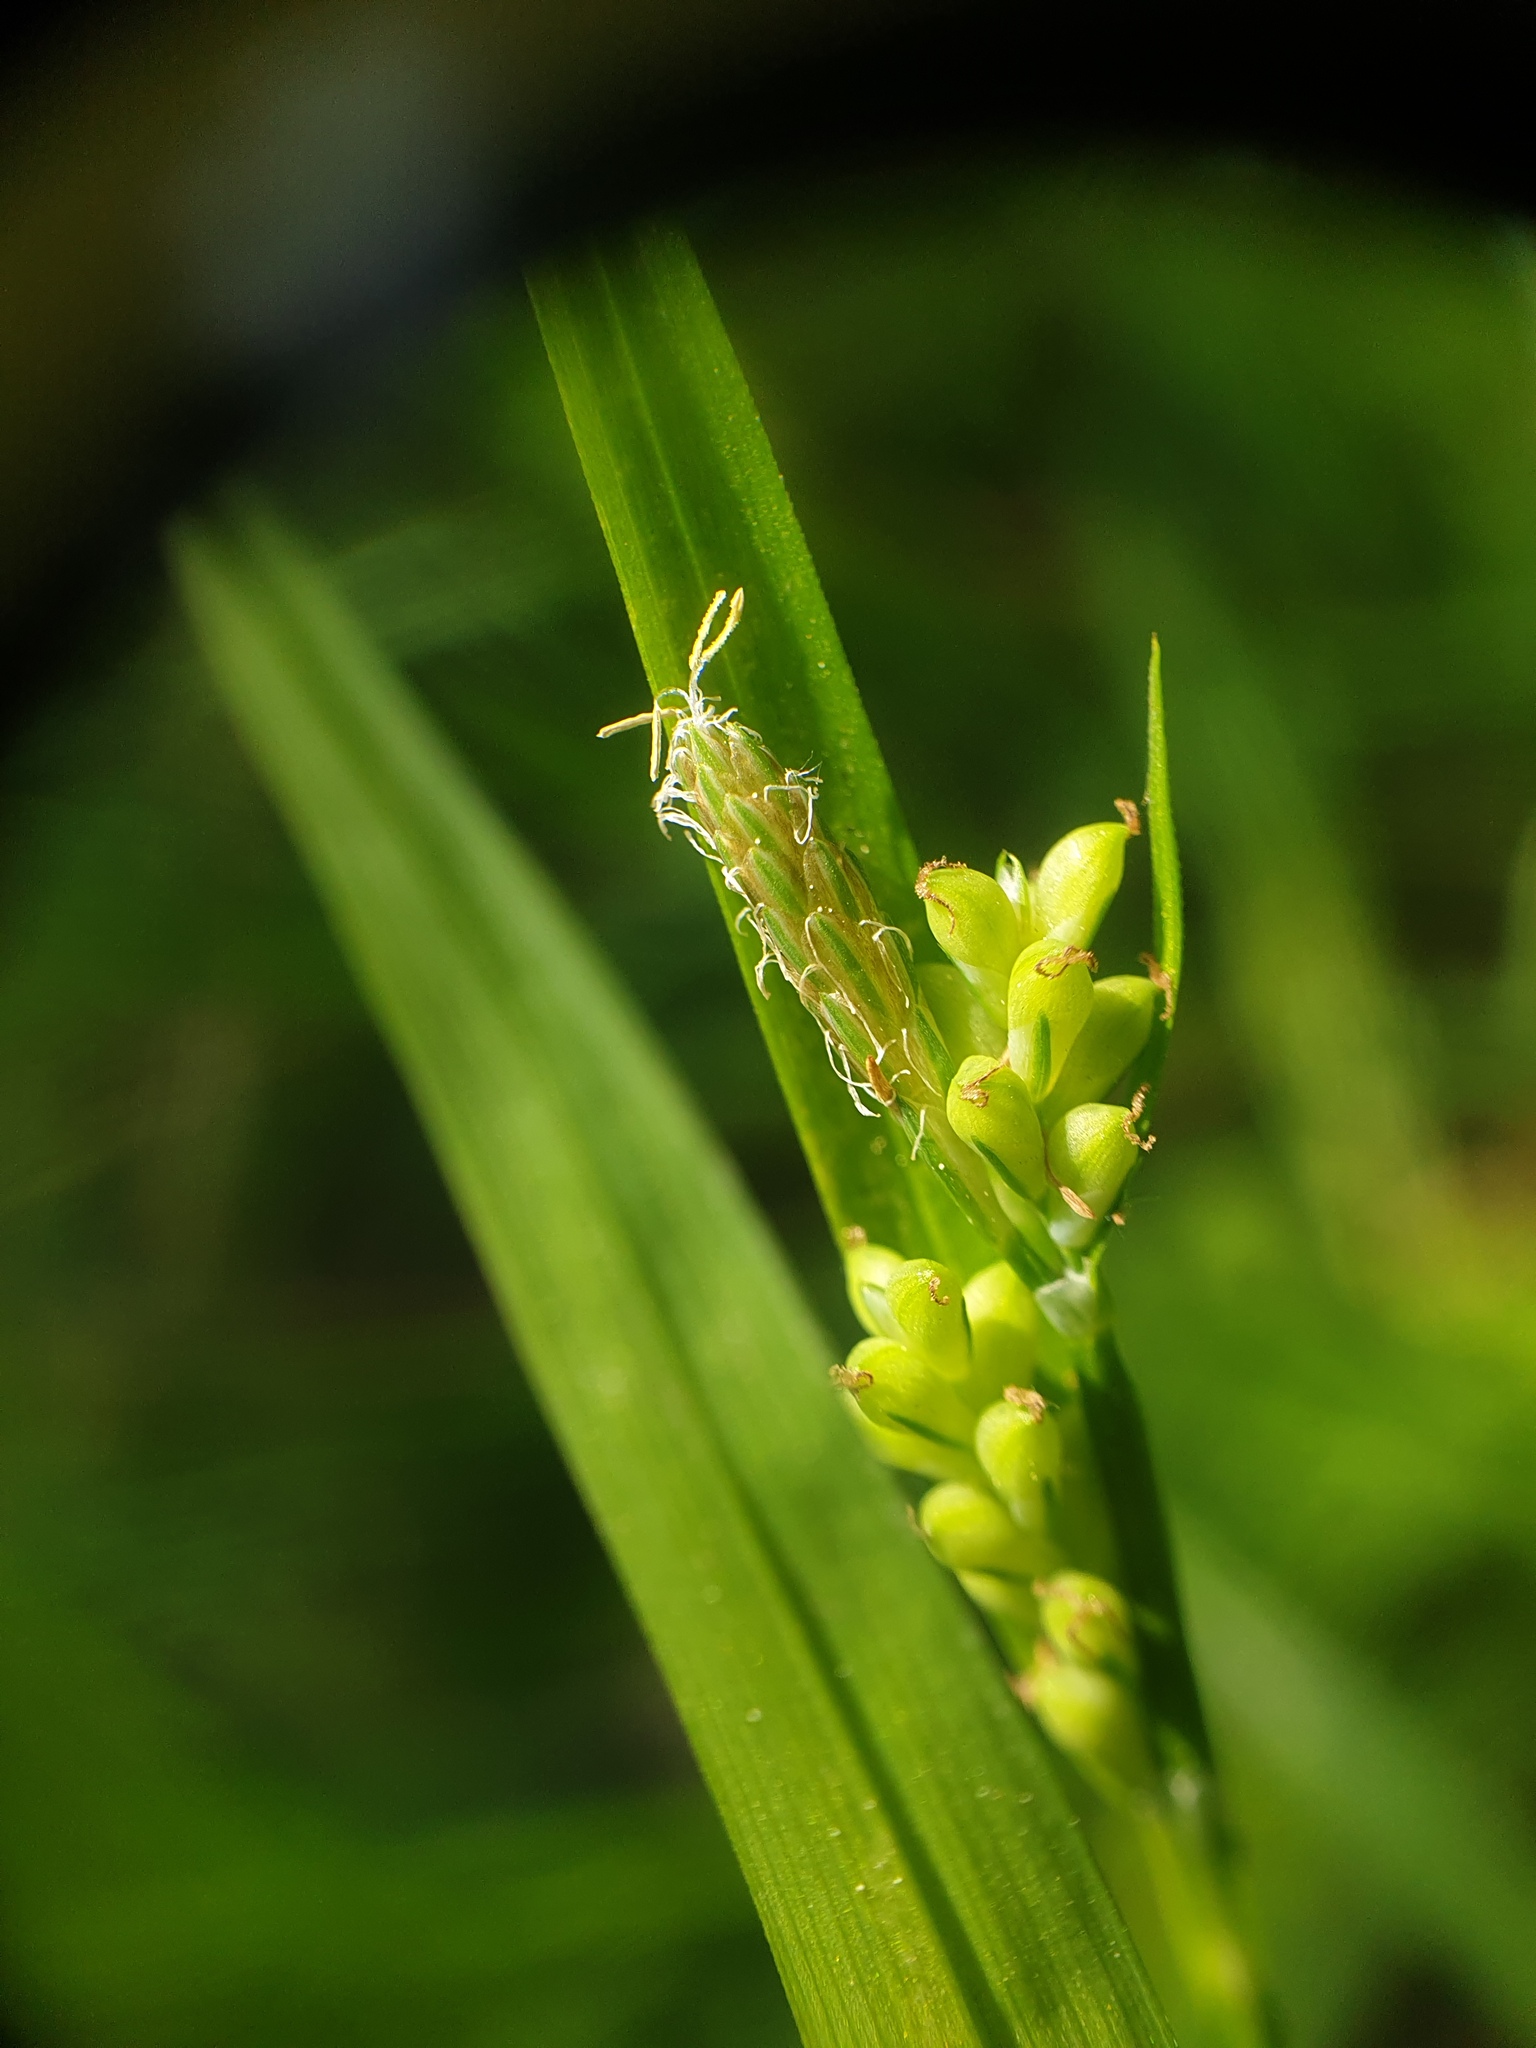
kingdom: Plantae
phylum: Tracheophyta
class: Liliopsida
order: Poales
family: Cyperaceae
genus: Carex
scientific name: Carex blanda
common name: Bland sedge
